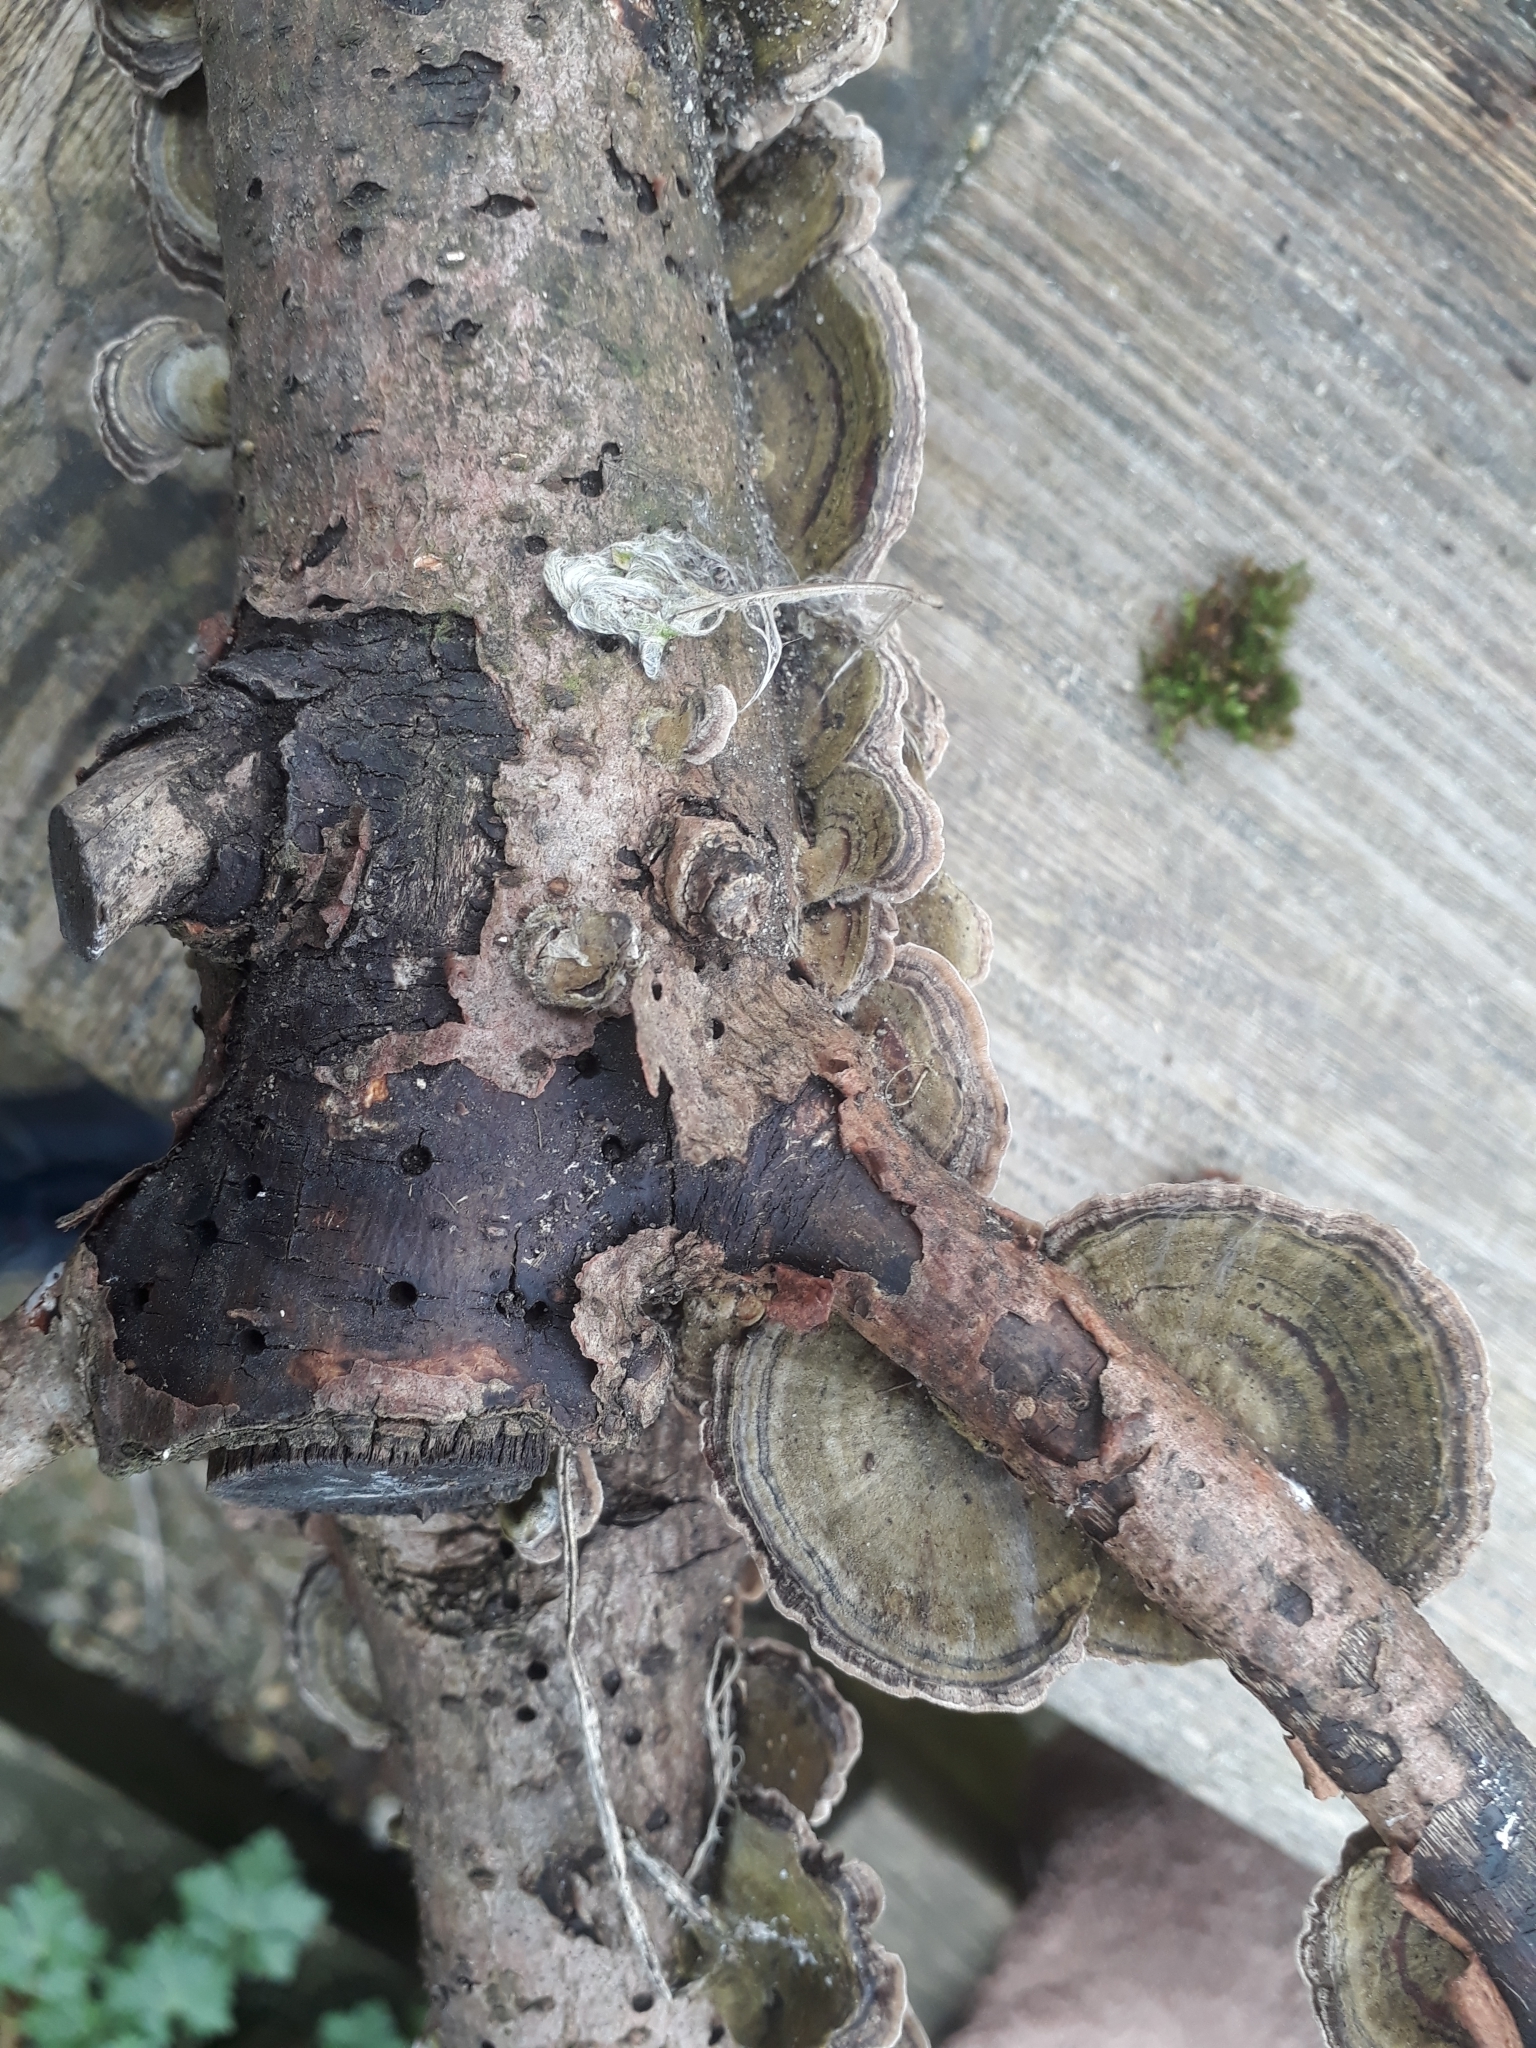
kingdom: Fungi
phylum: Basidiomycota
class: Agaricomycetes
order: Polyporales
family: Polyporaceae
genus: Trametes
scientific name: Trametes versicolor
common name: Turkeytail
